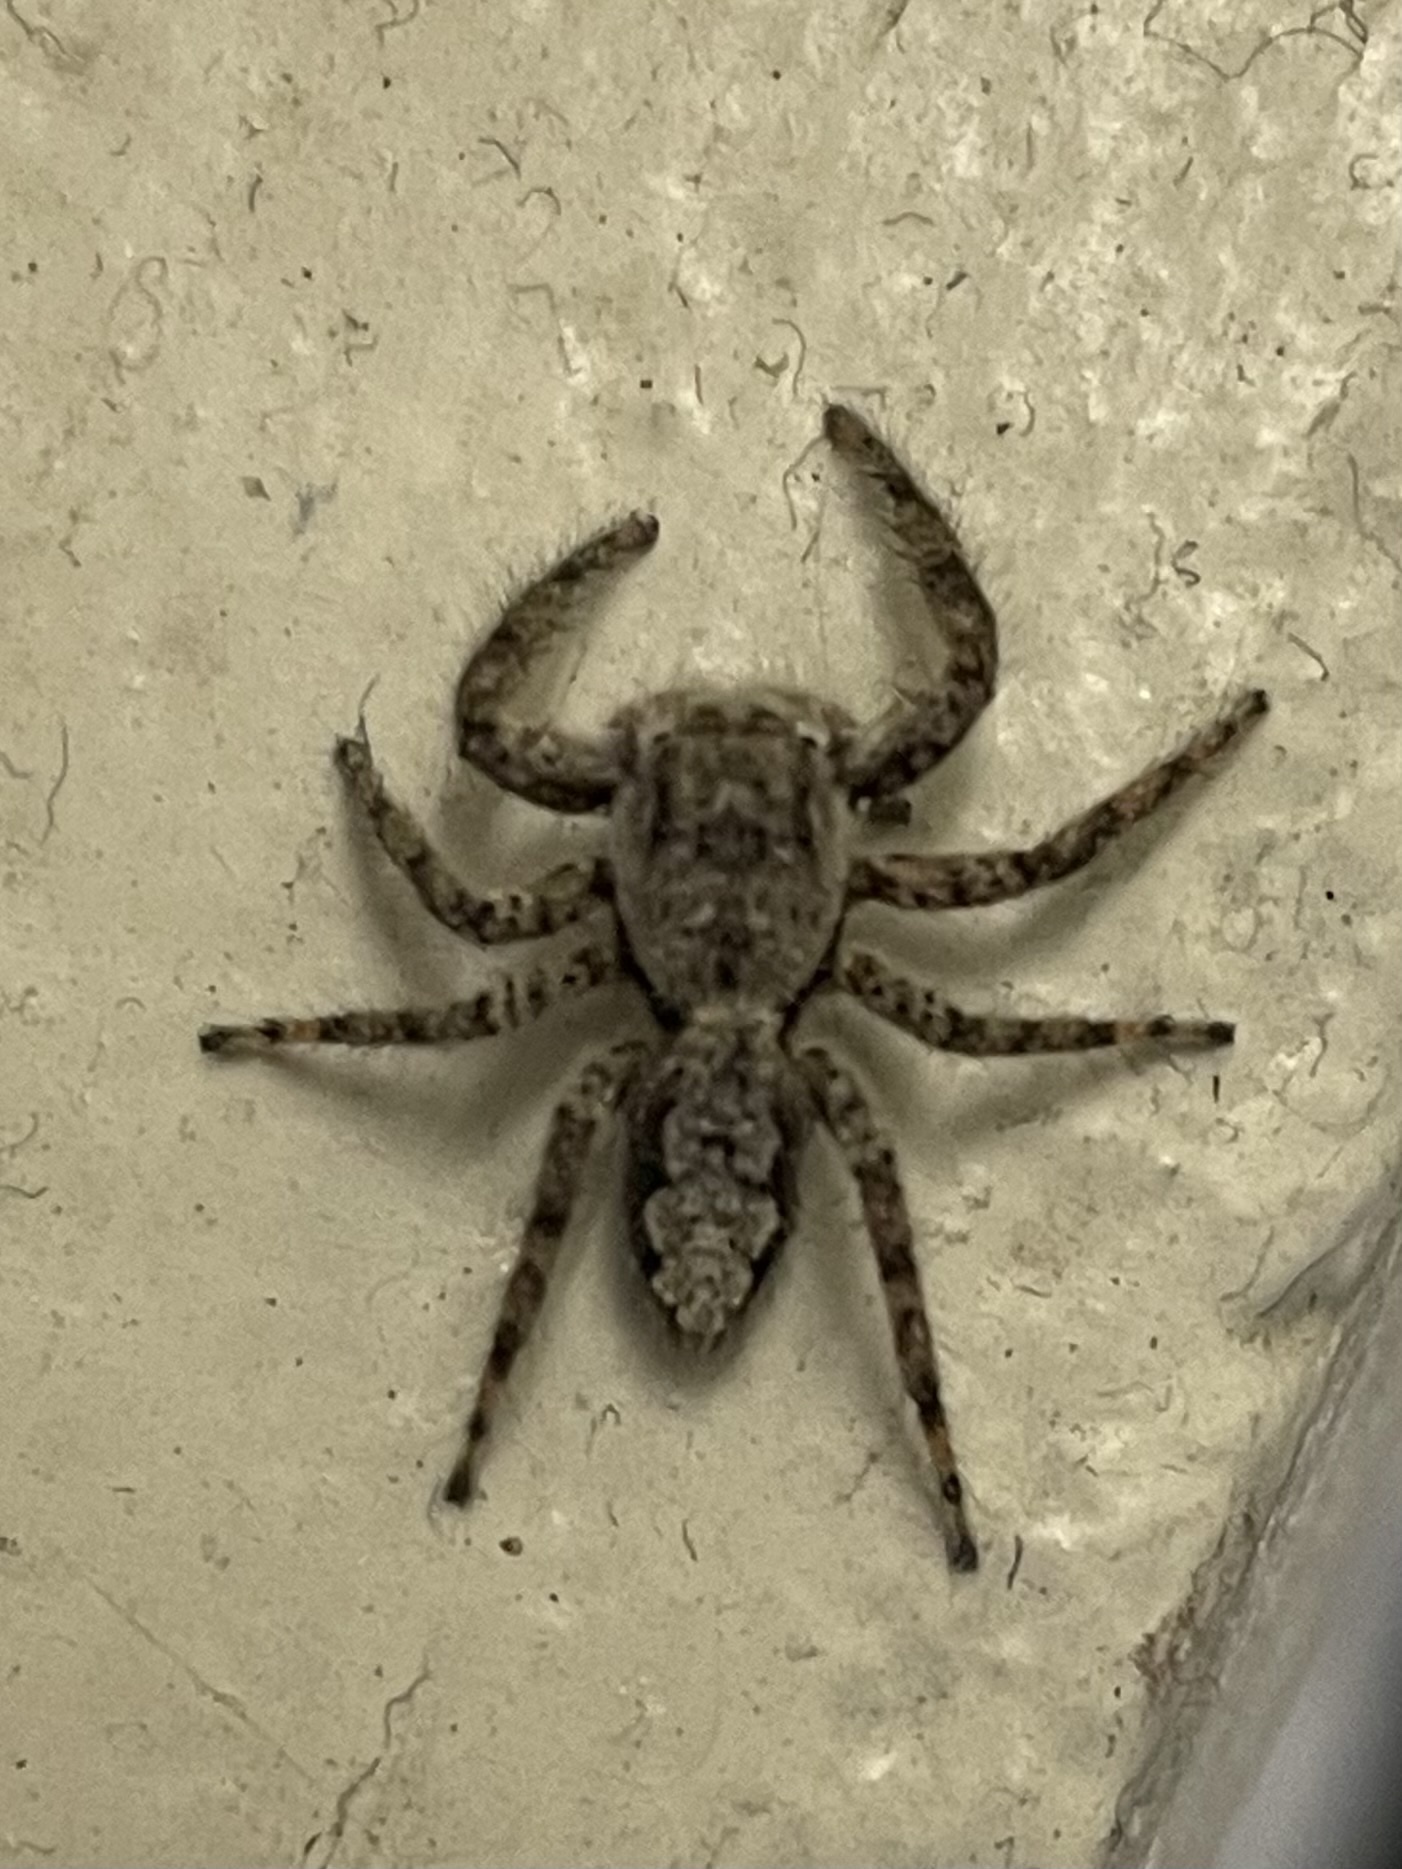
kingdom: Animalia
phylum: Arthropoda
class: Arachnida
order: Araneae
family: Salticidae
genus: Platycryptus
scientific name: Platycryptus undatus
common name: Tan jumping spider
